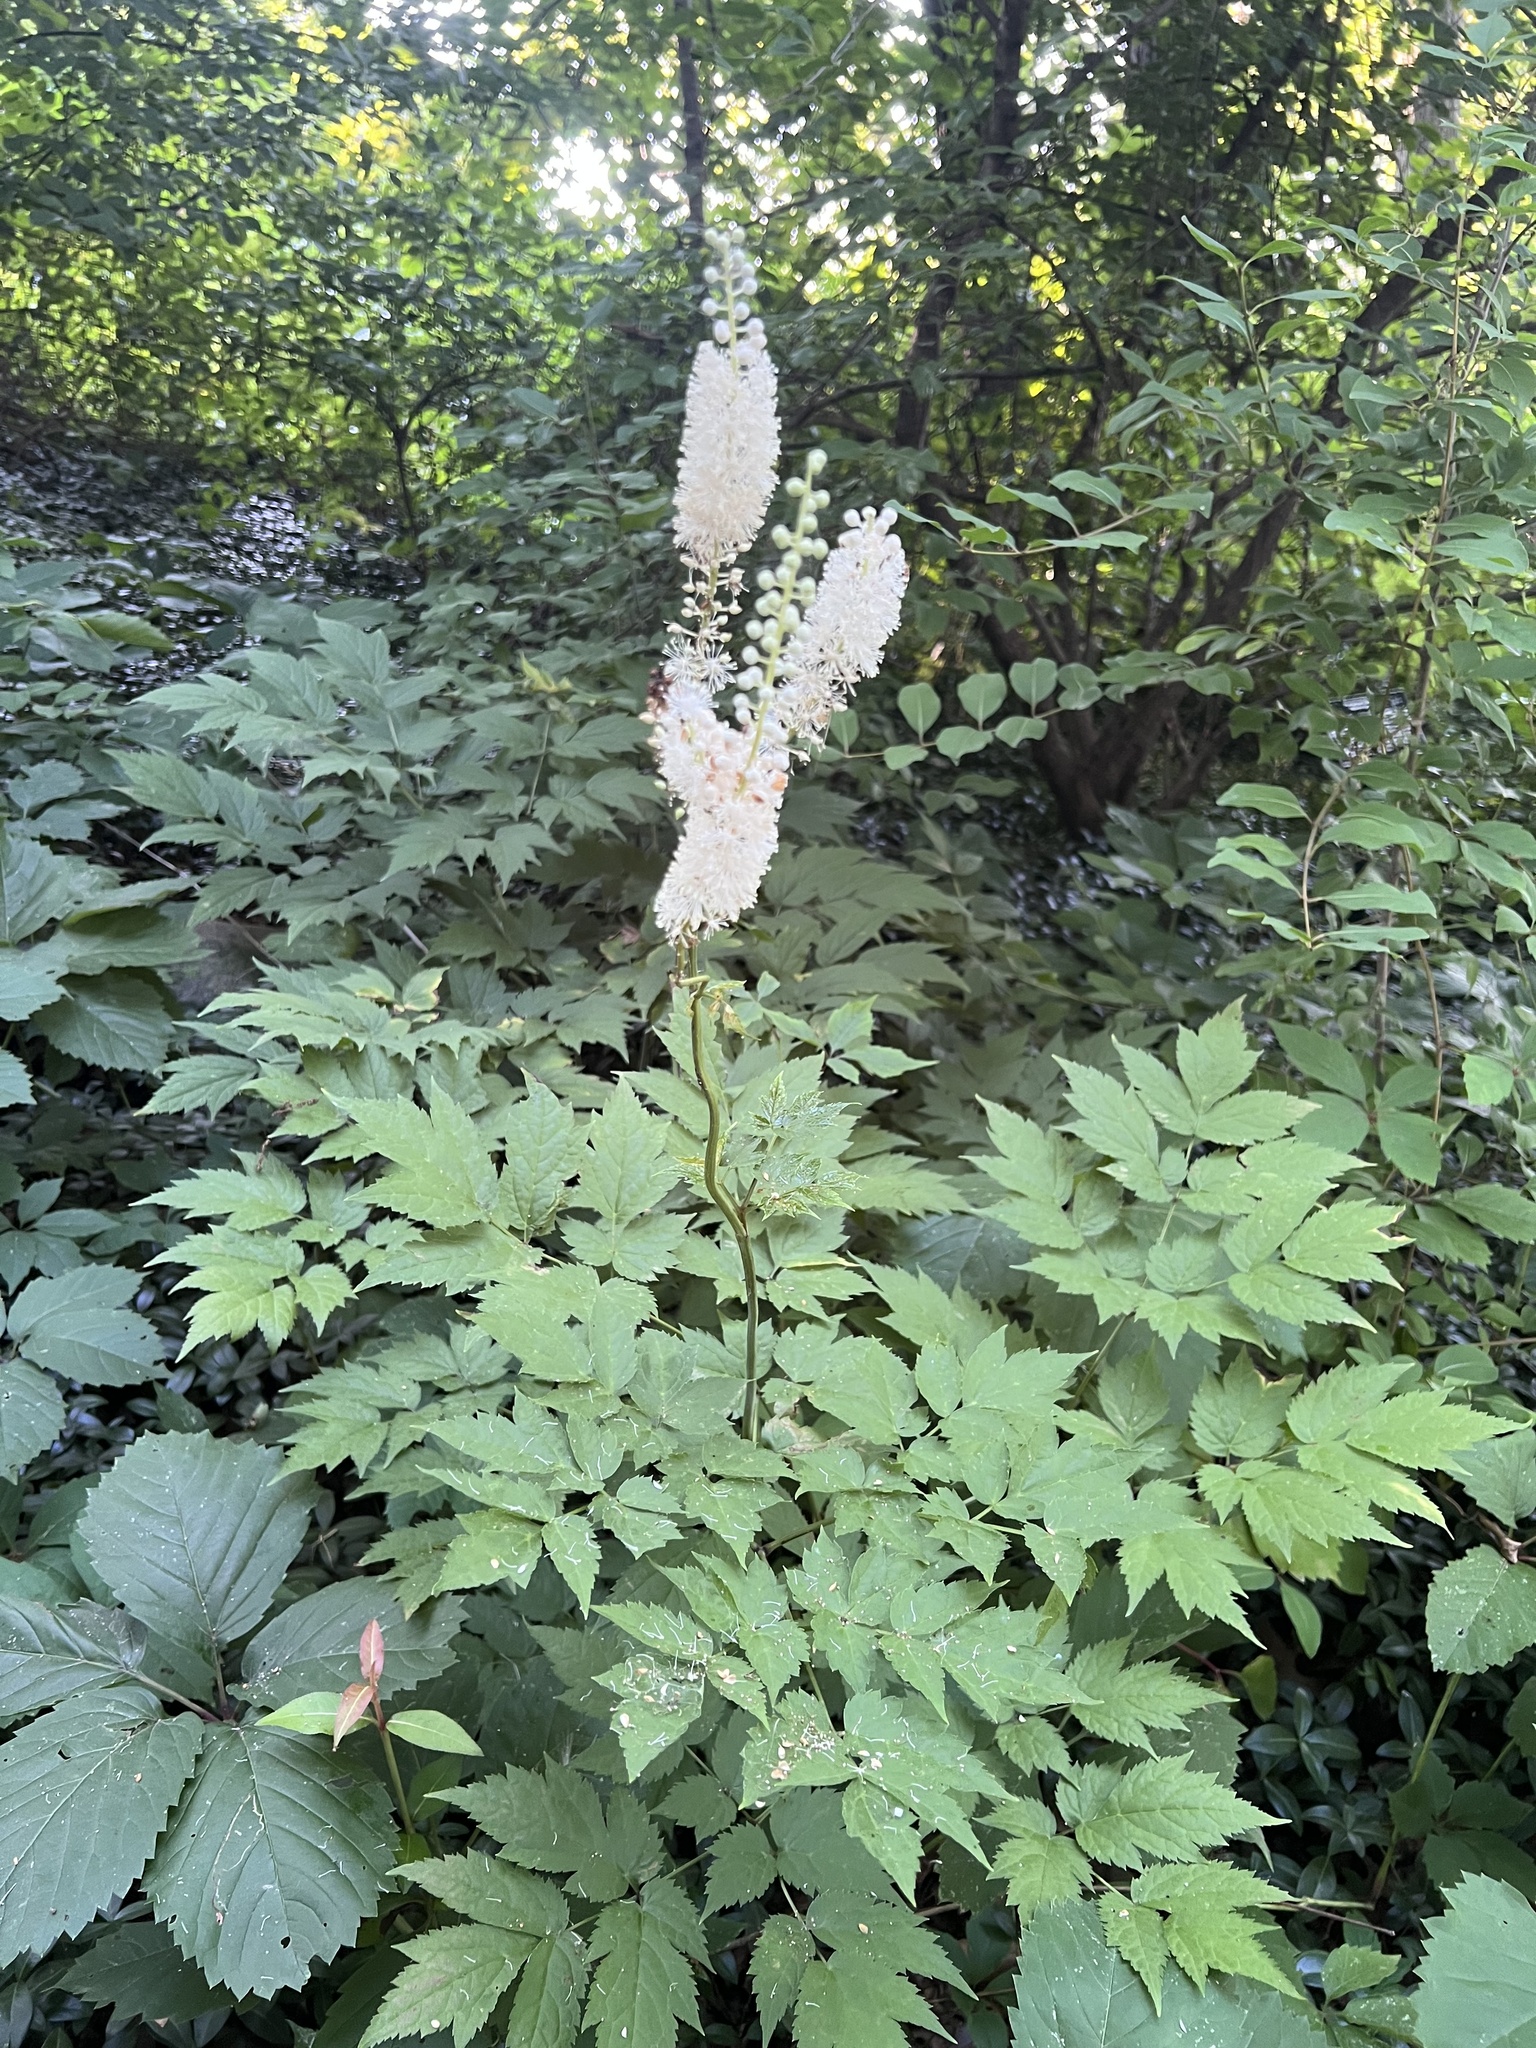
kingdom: Plantae
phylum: Tracheophyta
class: Magnoliopsida
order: Ranunculales
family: Ranunculaceae
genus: Actaea
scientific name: Actaea racemosa
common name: Black cohosh
